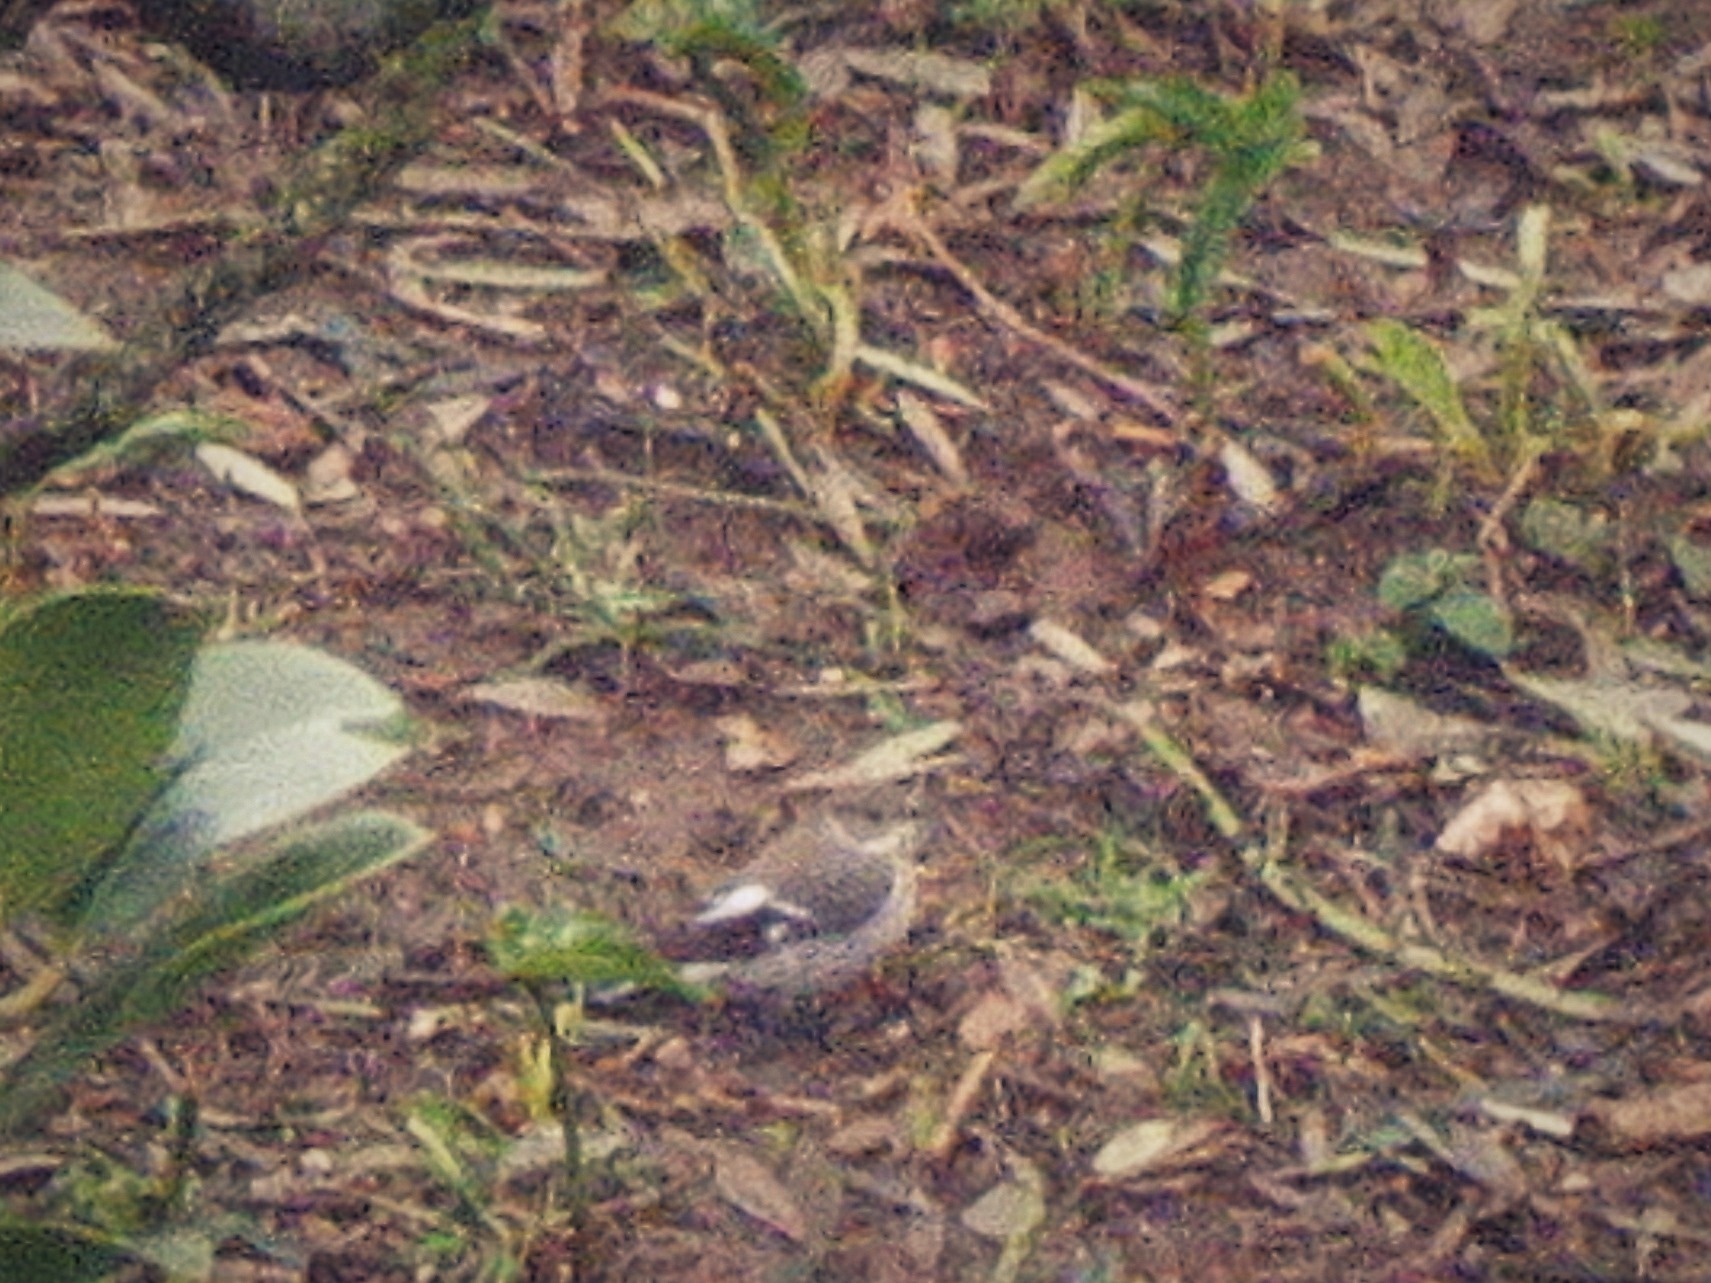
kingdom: Animalia
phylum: Chordata
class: Aves
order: Passeriformes
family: Muscicapidae
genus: Ficedula
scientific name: Ficedula albicollis
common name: Collared flycatcher
